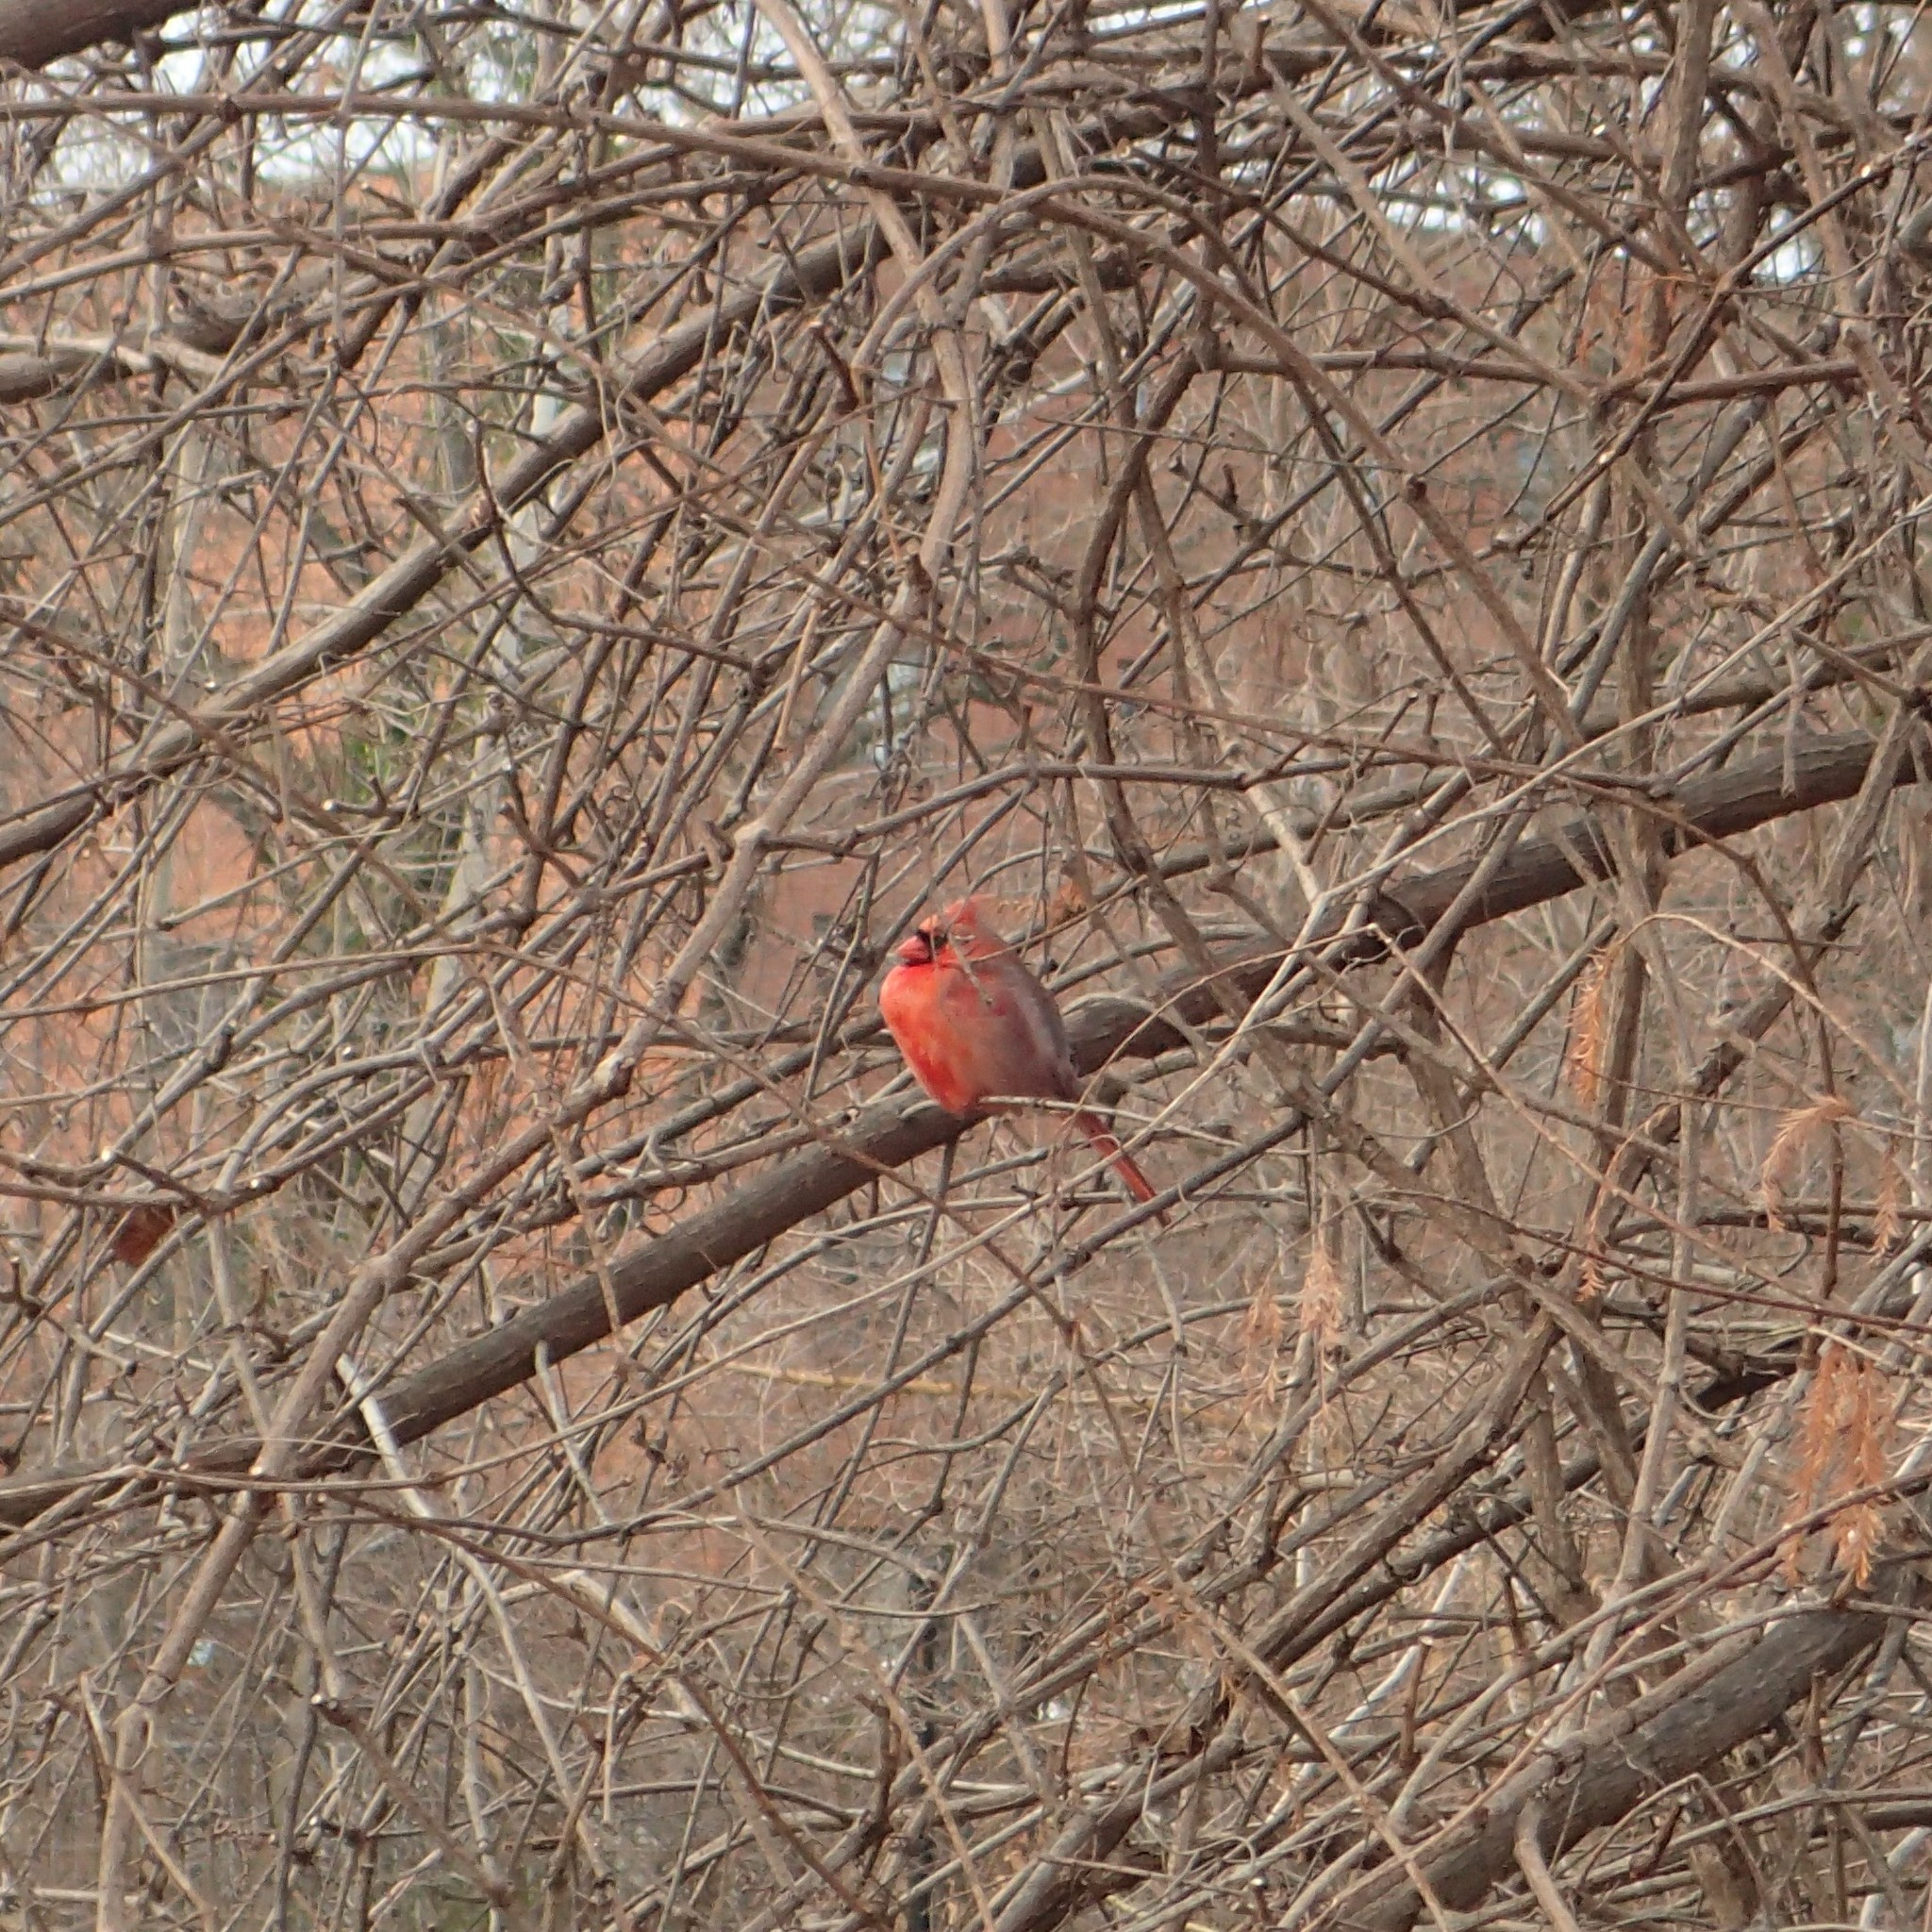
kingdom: Animalia
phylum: Chordata
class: Aves
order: Passeriformes
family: Cardinalidae
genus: Cardinalis
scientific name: Cardinalis cardinalis
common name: Northern cardinal
